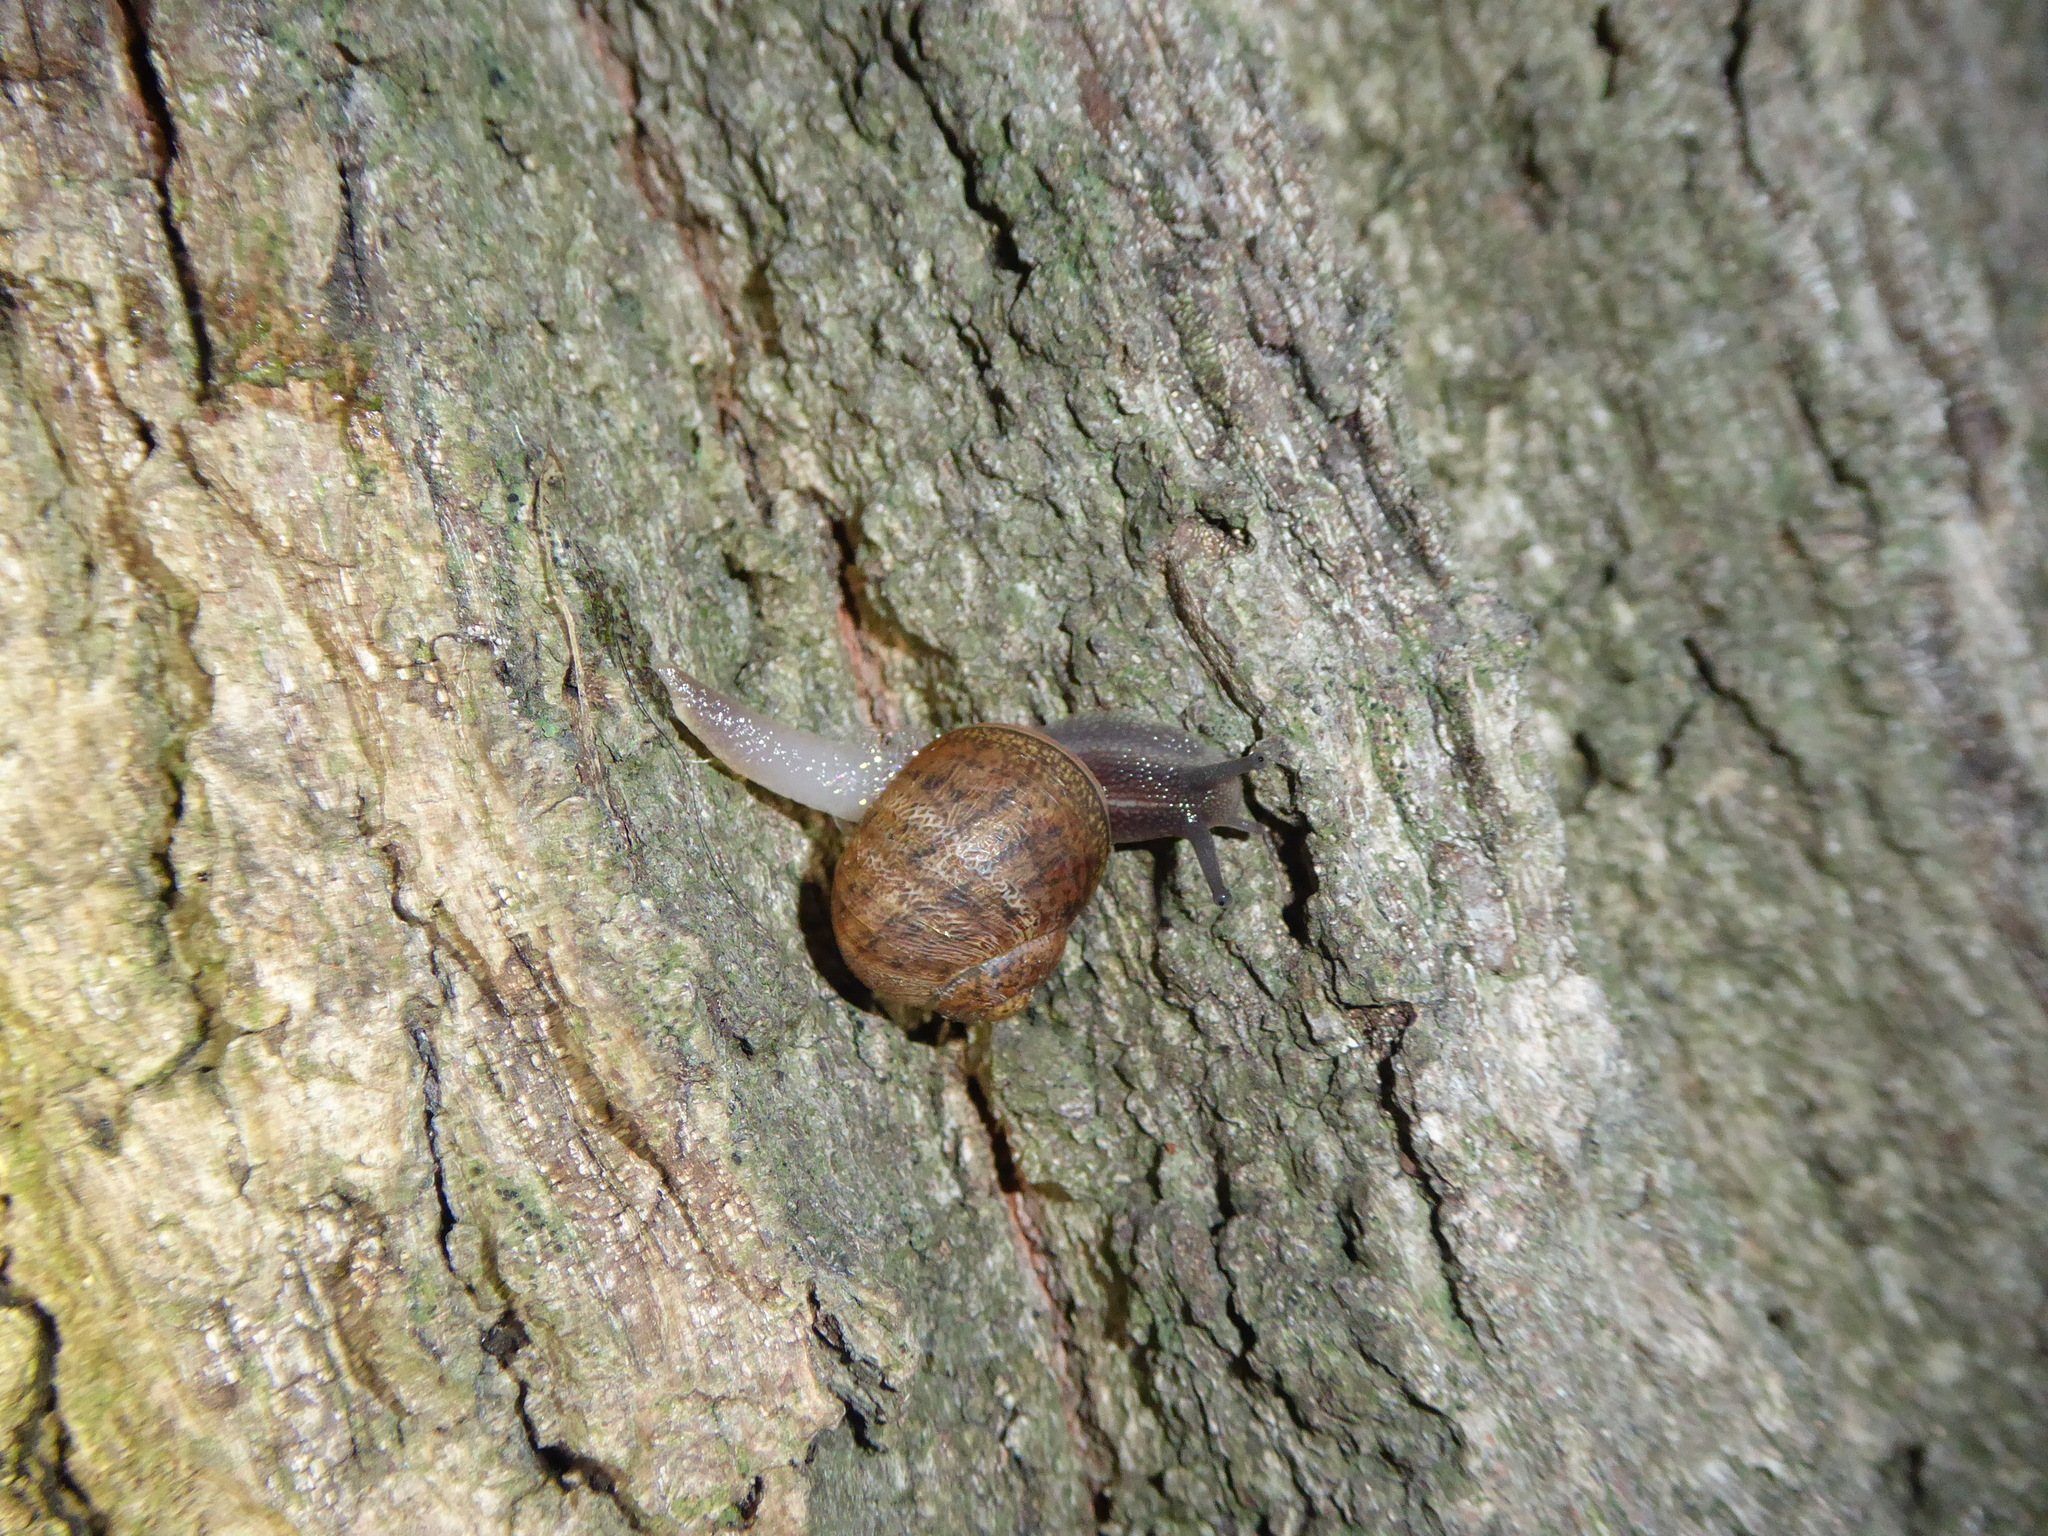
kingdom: Animalia
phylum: Mollusca
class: Gastropoda
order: Stylommatophora
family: Helicidae
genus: Cornu
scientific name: Cornu aspersum
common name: Brown garden snail
